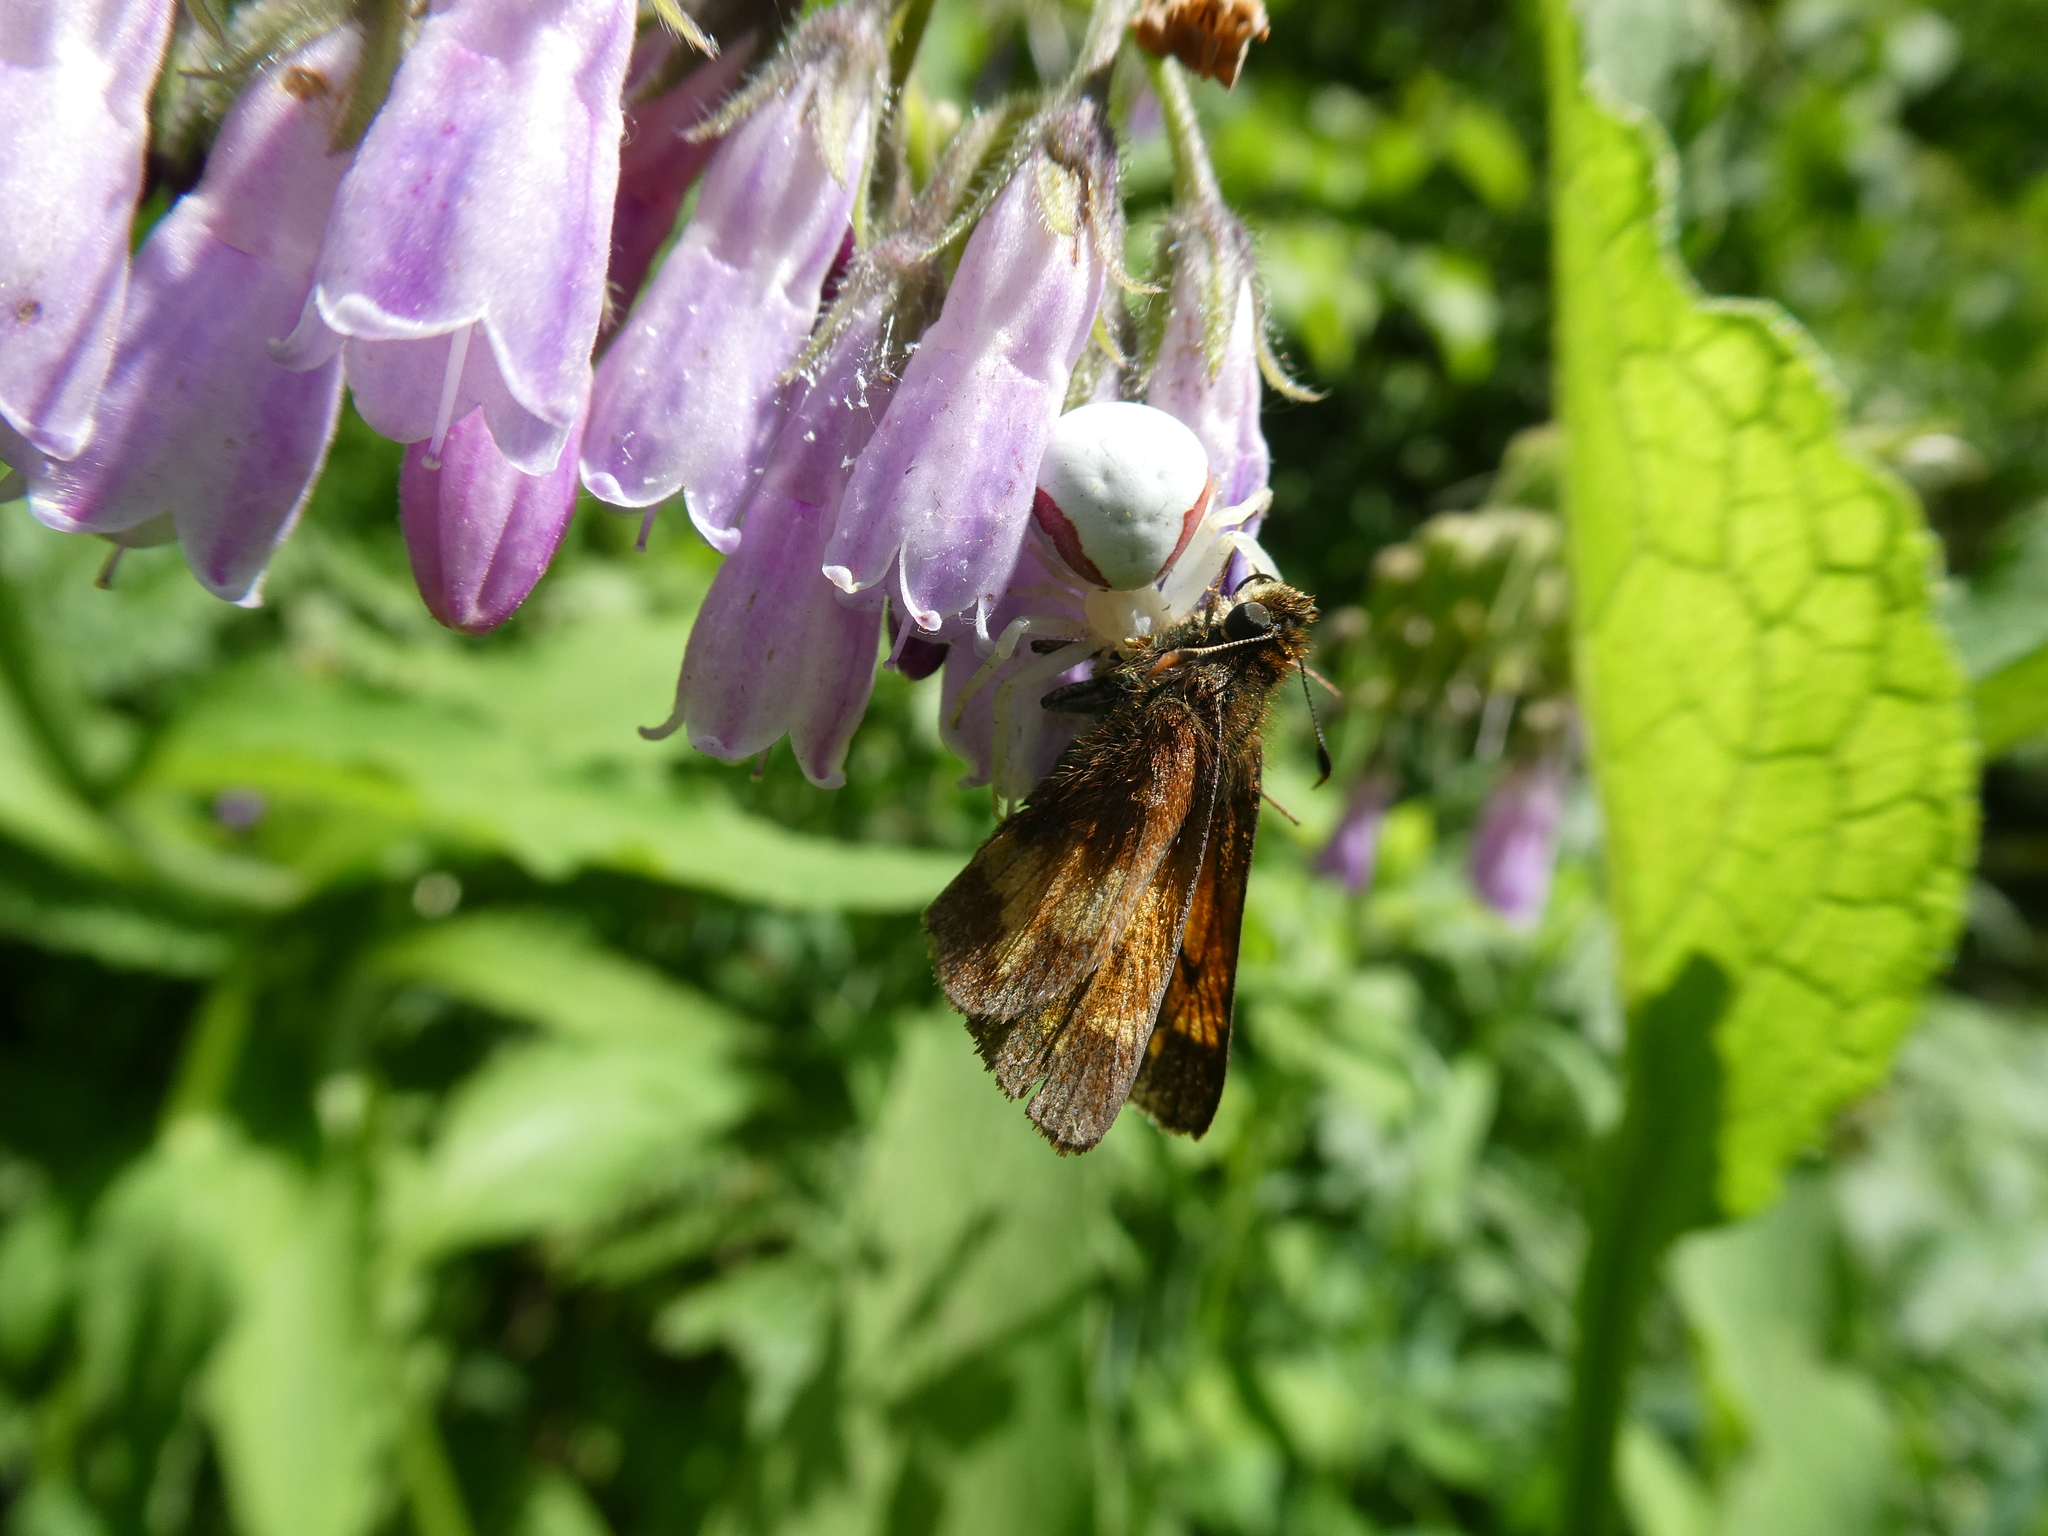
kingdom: Animalia
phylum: Arthropoda
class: Insecta
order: Lepidoptera
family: Hesperiidae
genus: Lon
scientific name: Lon hobomok
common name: Hobomok skipper
